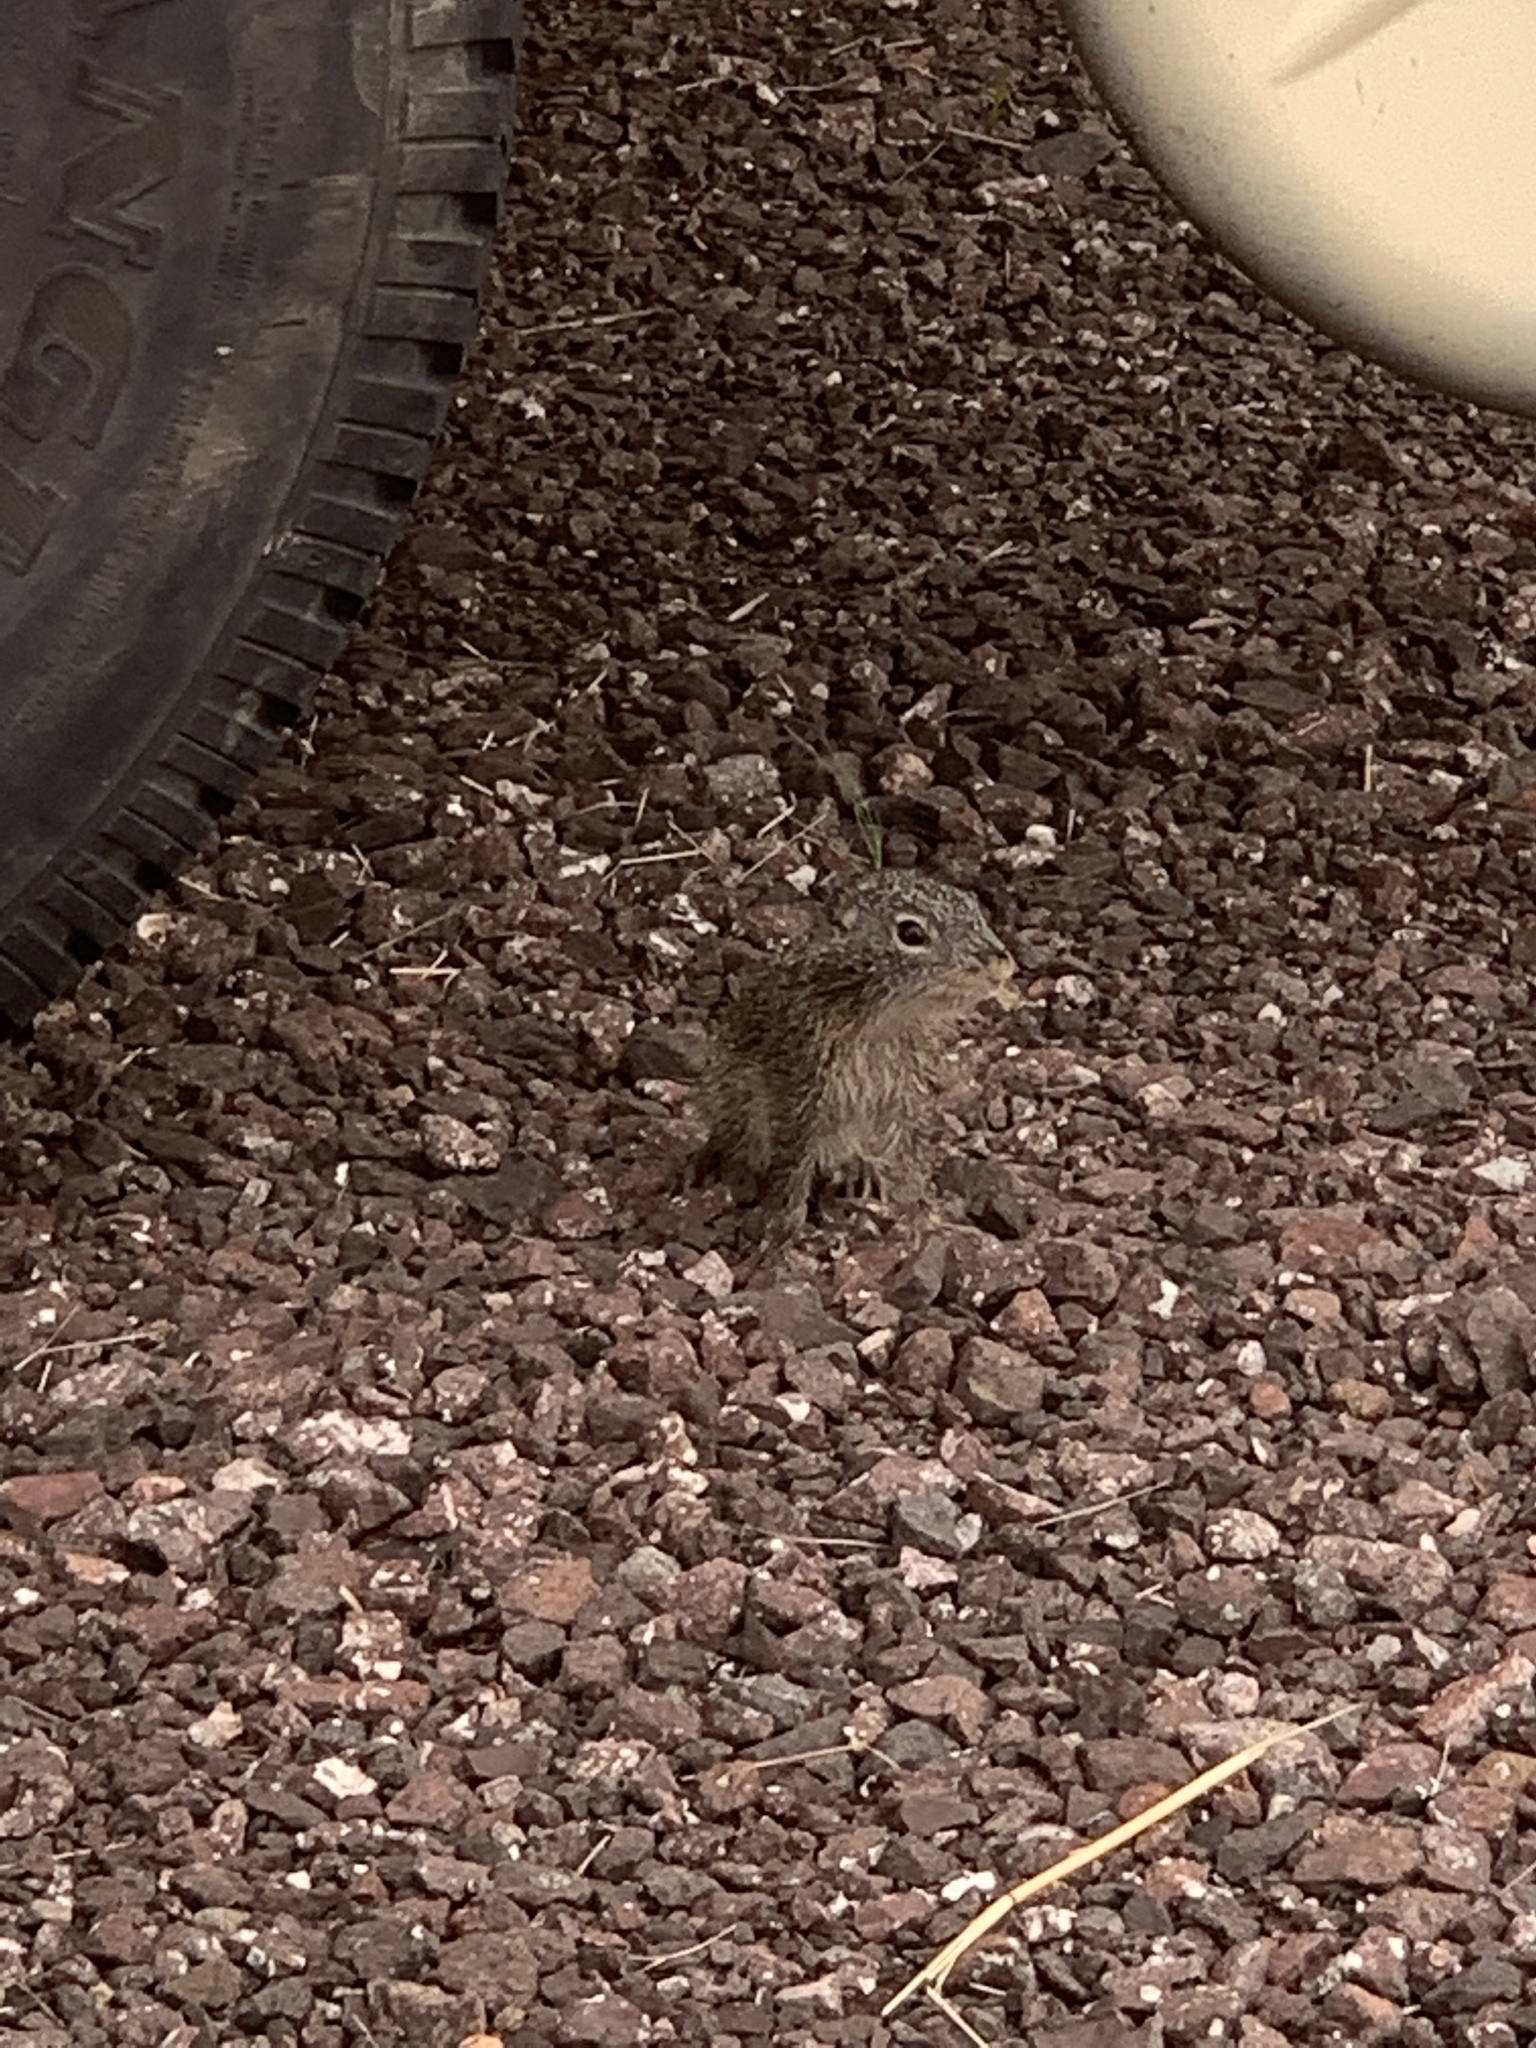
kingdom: Animalia
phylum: Chordata
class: Mammalia
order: Rodentia
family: Sciuridae
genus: Poliocitellus
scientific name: Poliocitellus franklinii
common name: Franklin's ground squirrel
